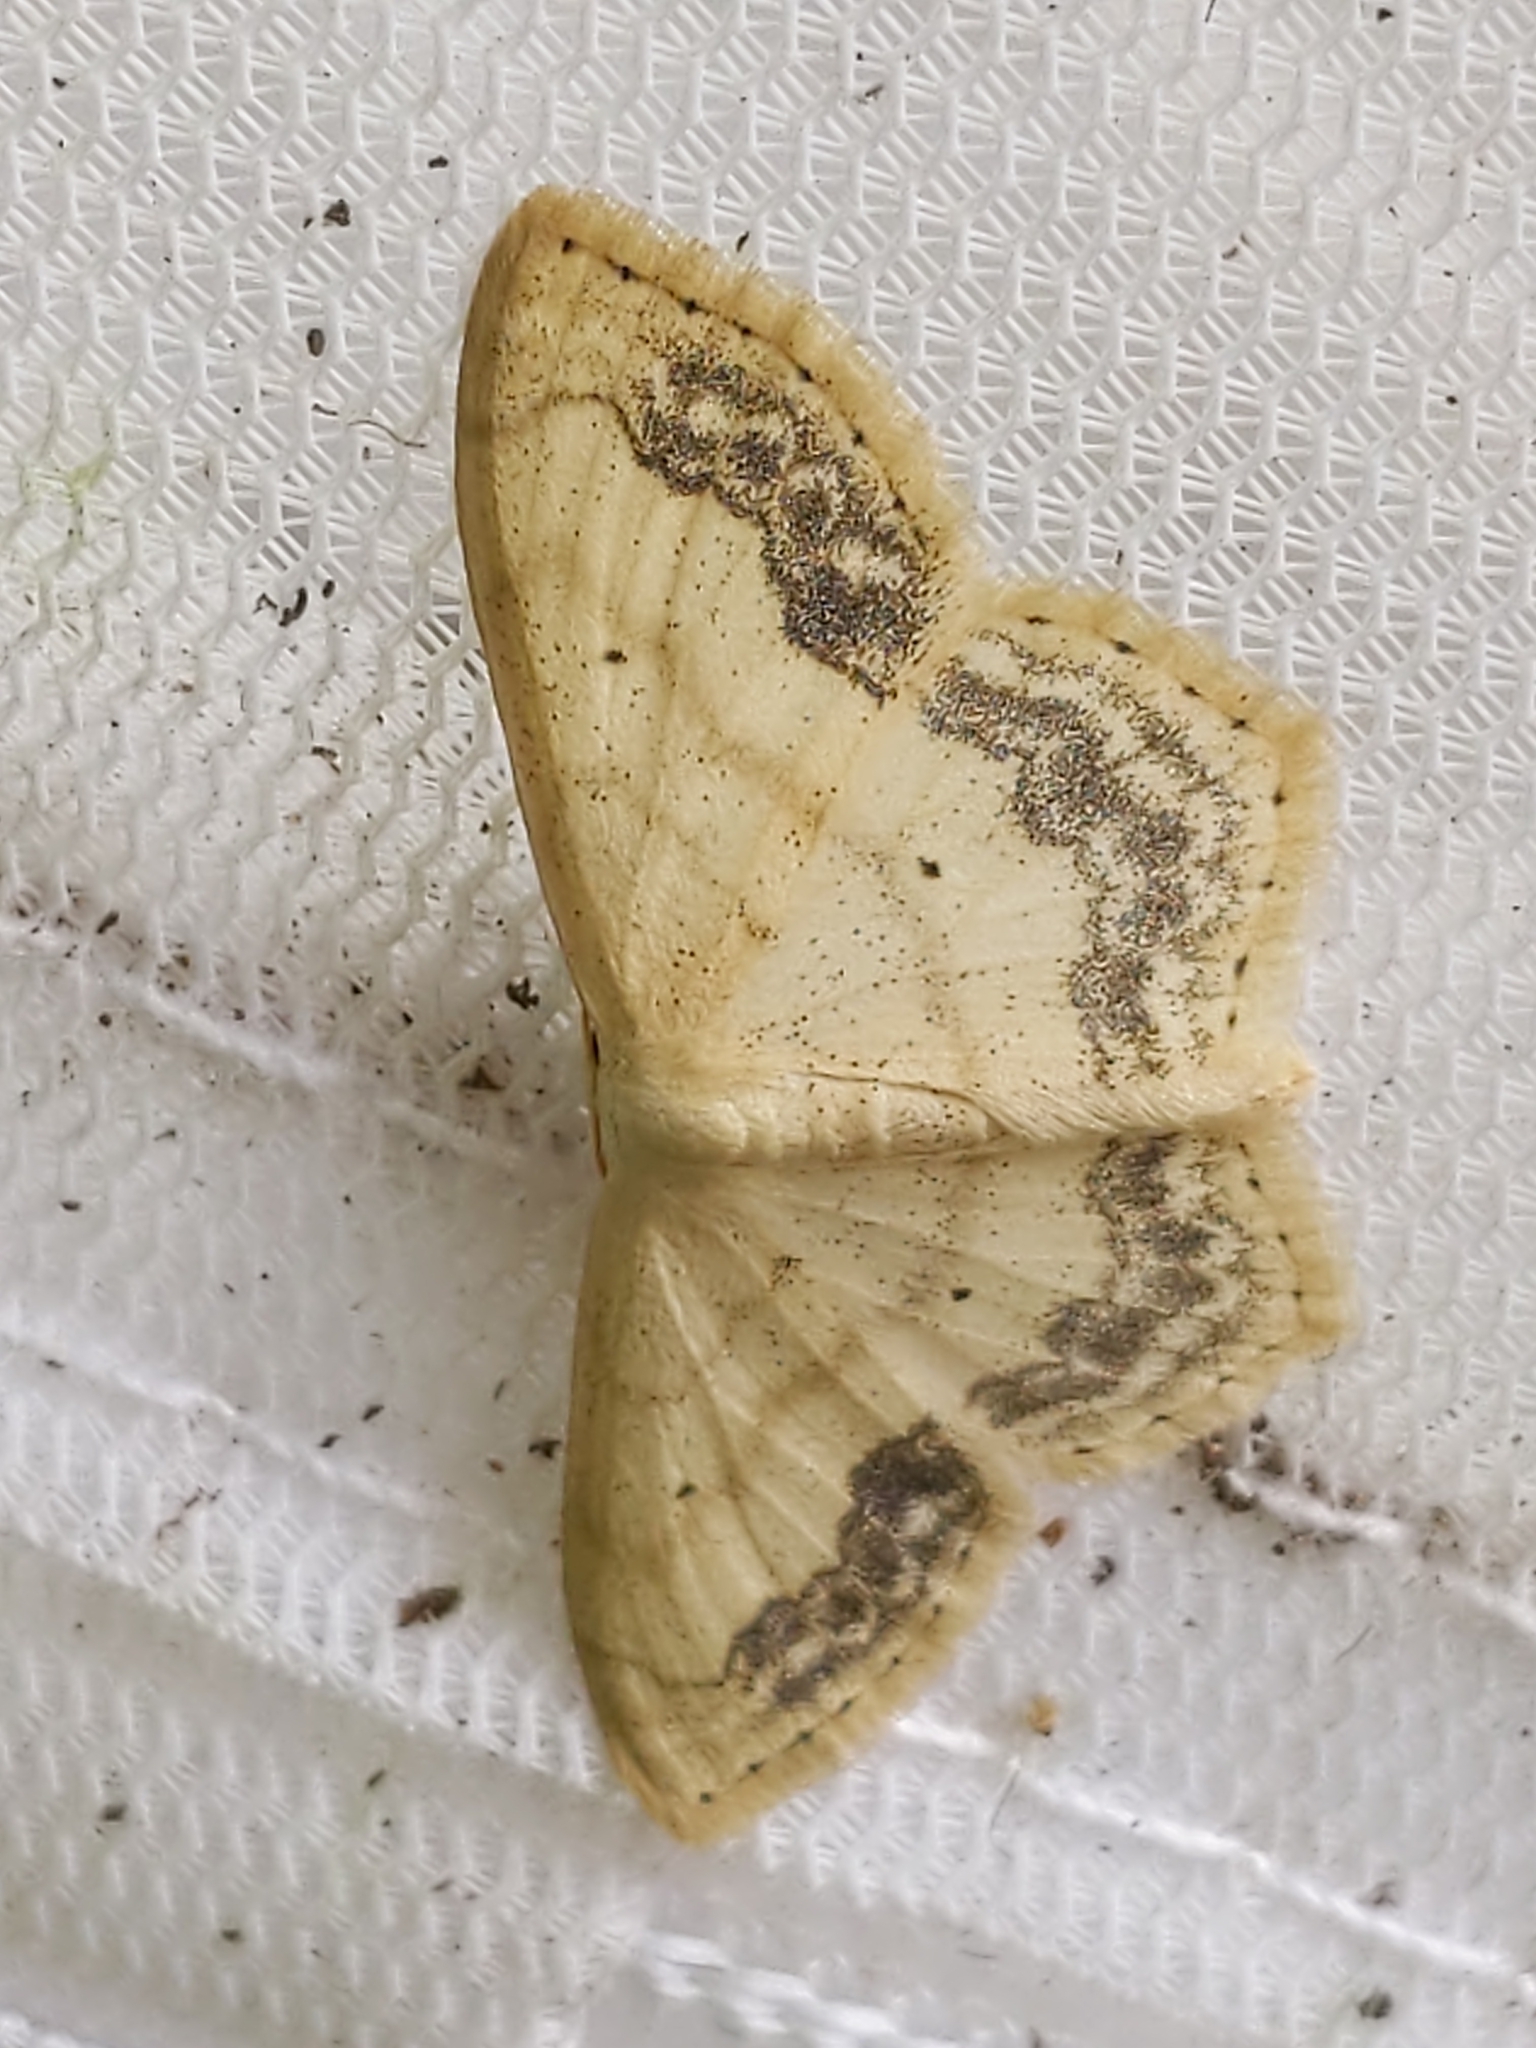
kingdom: Animalia
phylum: Arthropoda
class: Insecta
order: Lepidoptera
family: Geometridae
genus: Scopula
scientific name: Scopula limboundata
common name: Large lace border
